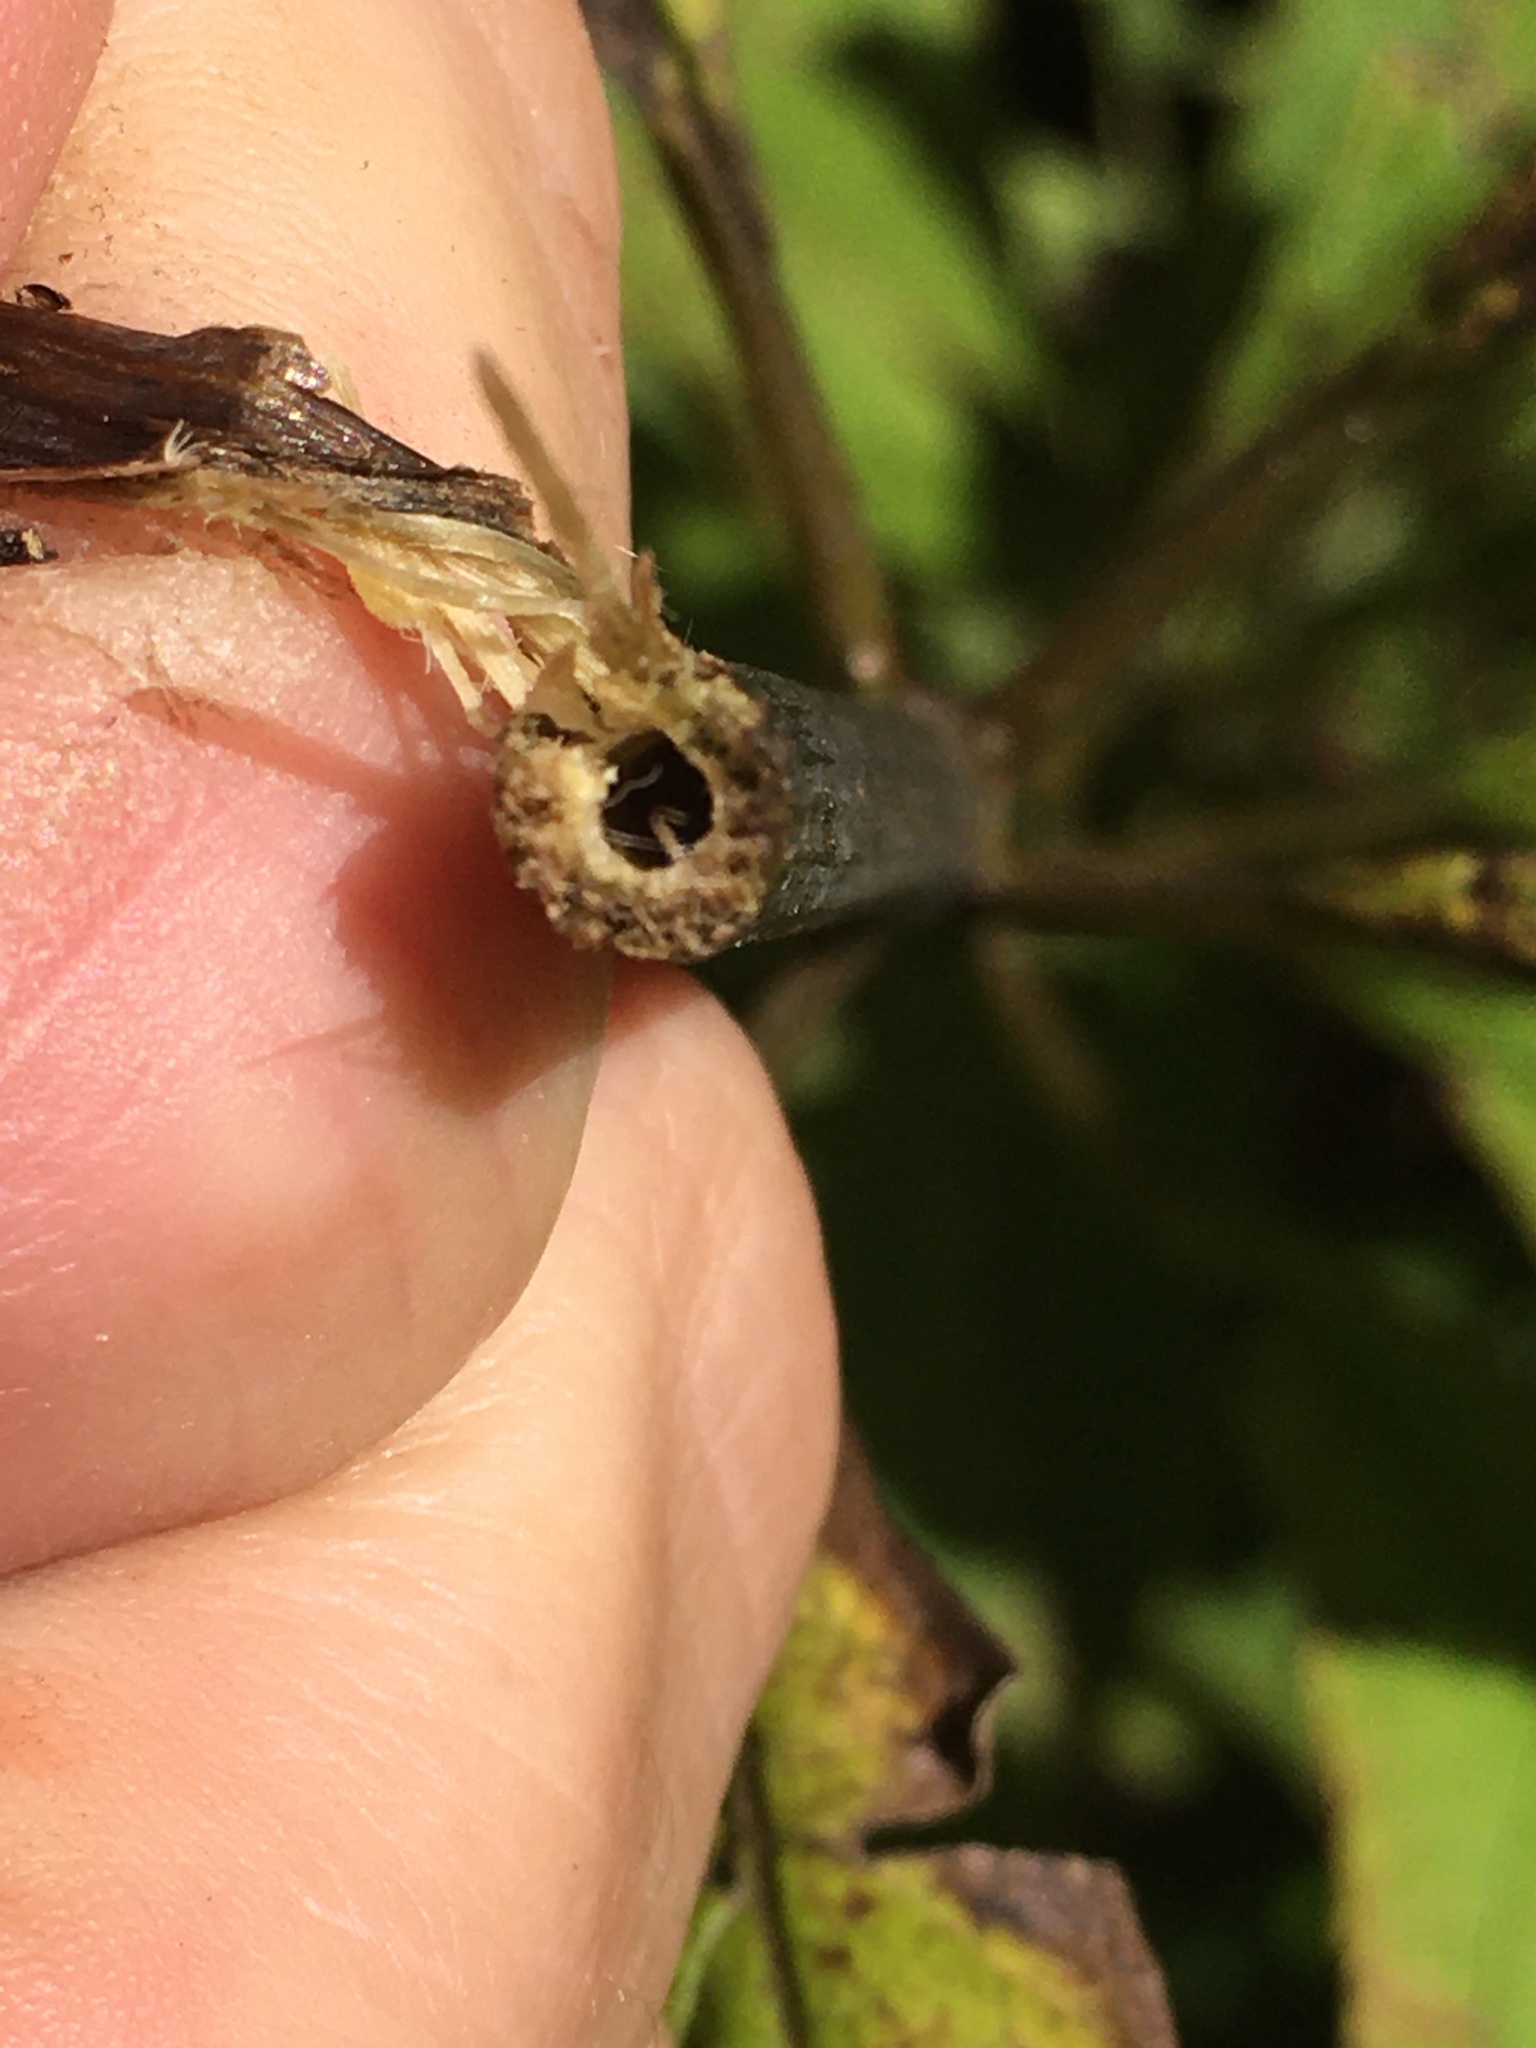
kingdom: Plantae
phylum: Tracheophyta
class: Magnoliopsida
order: Asterales
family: Asteraceae
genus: Eutrochium
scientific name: Eutrochium fistulosum
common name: Trumpetweed
